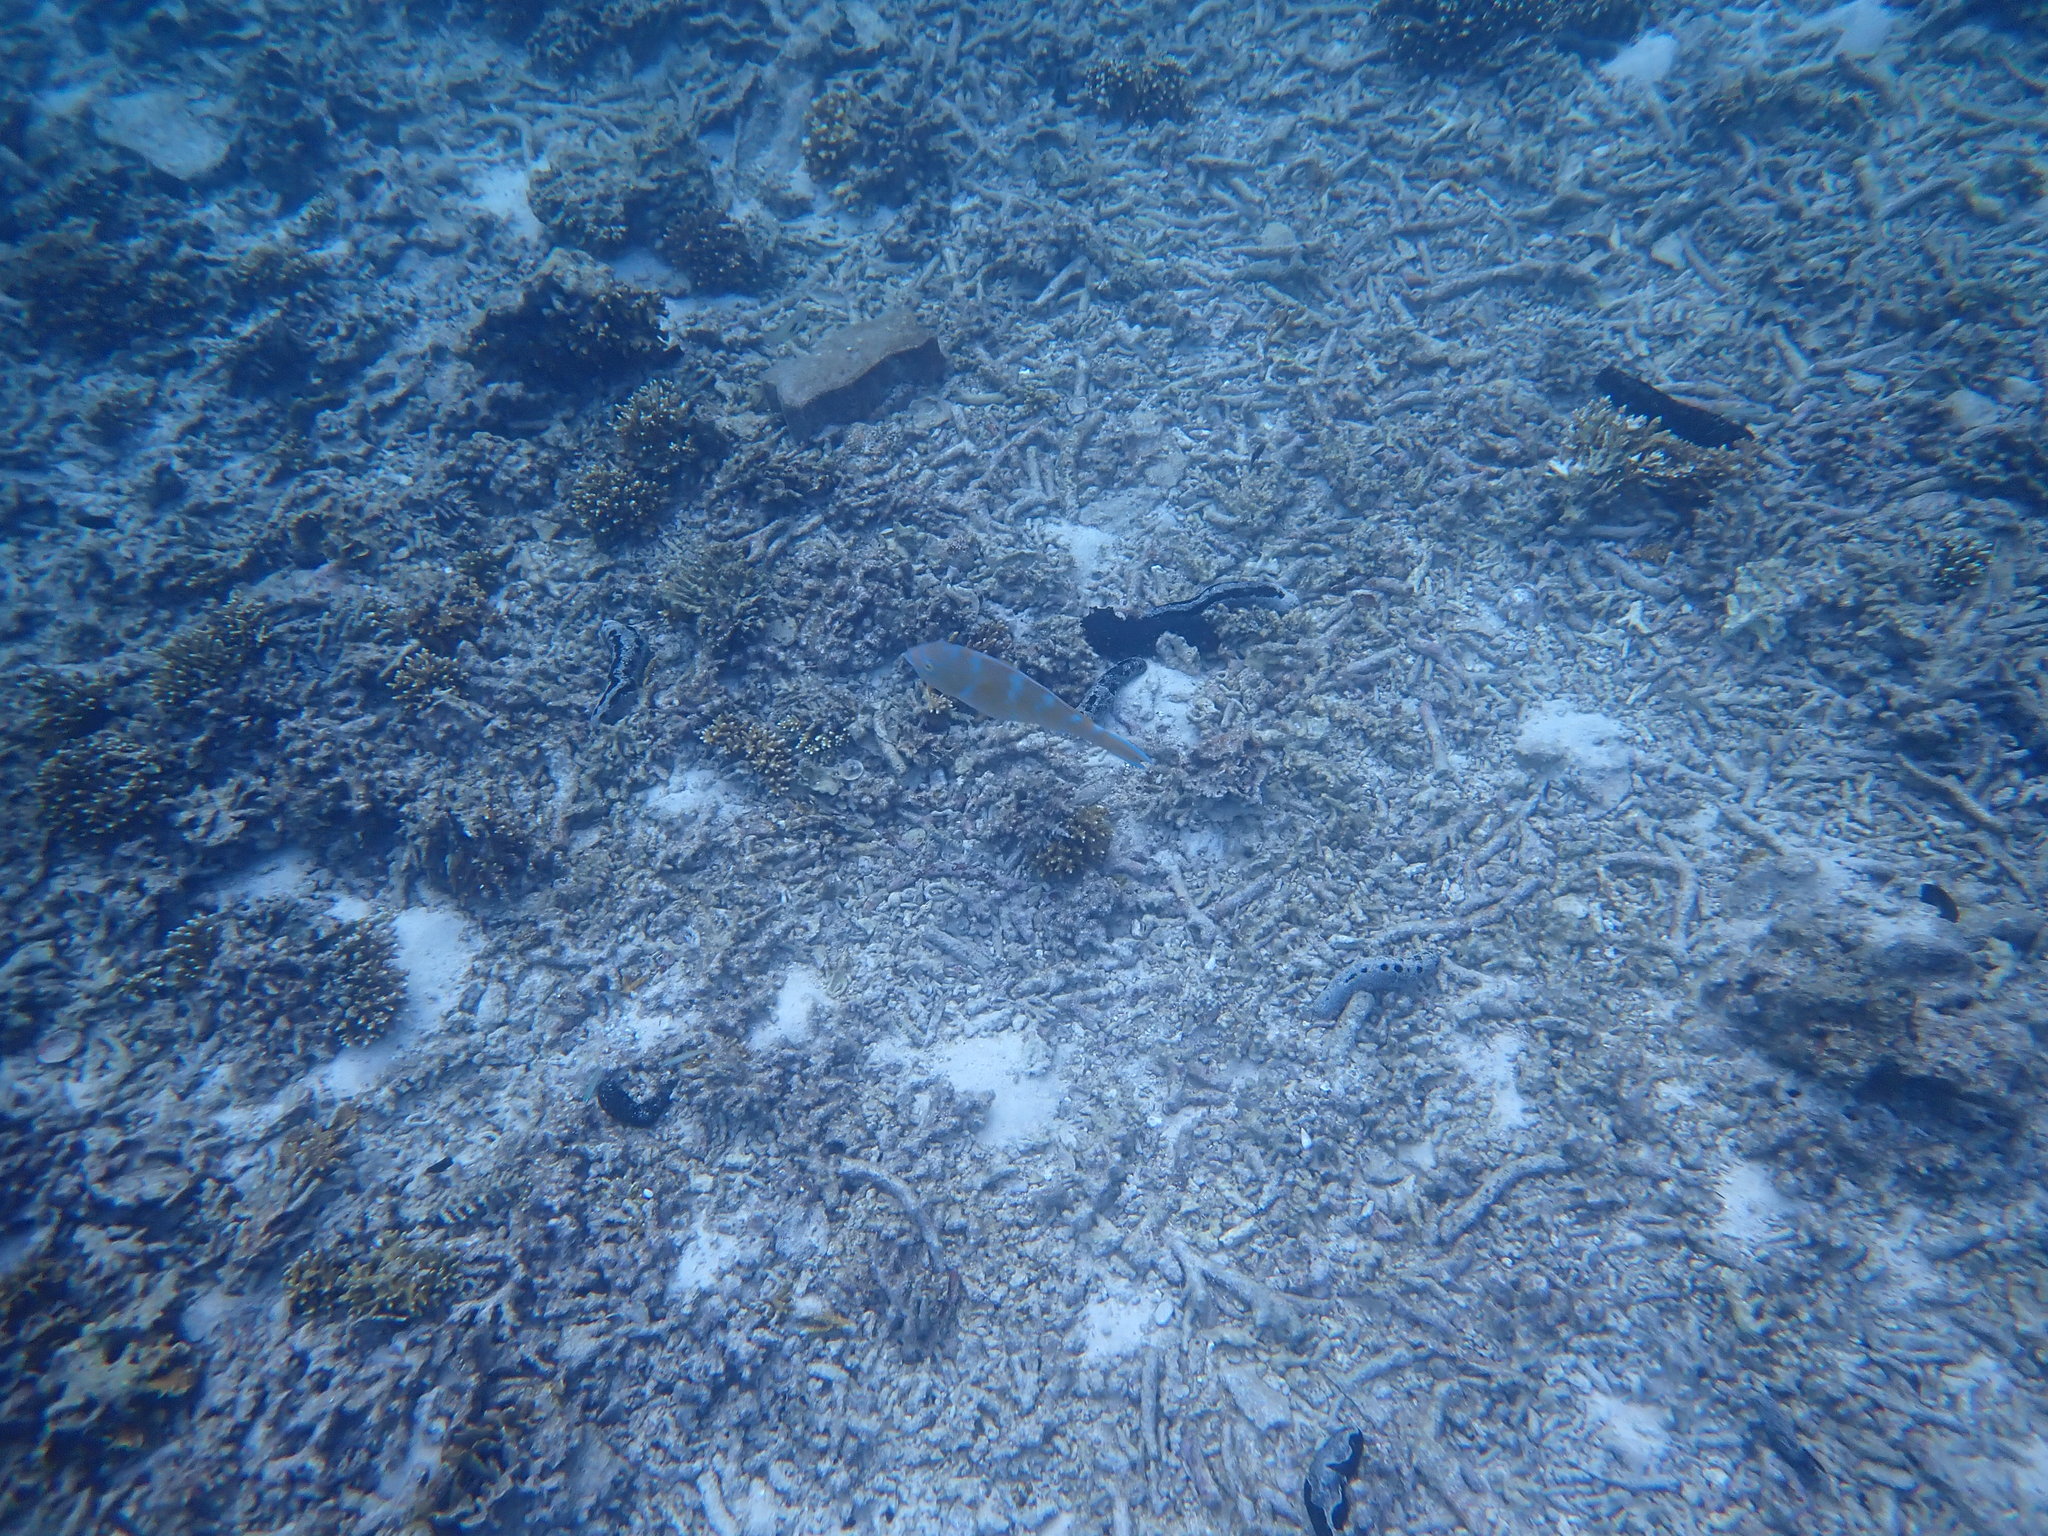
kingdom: Animalia
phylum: Chordata
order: Perciformes
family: Scaridae
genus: Scarus
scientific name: Scarus ghobban
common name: Blue-barred parrotfish
